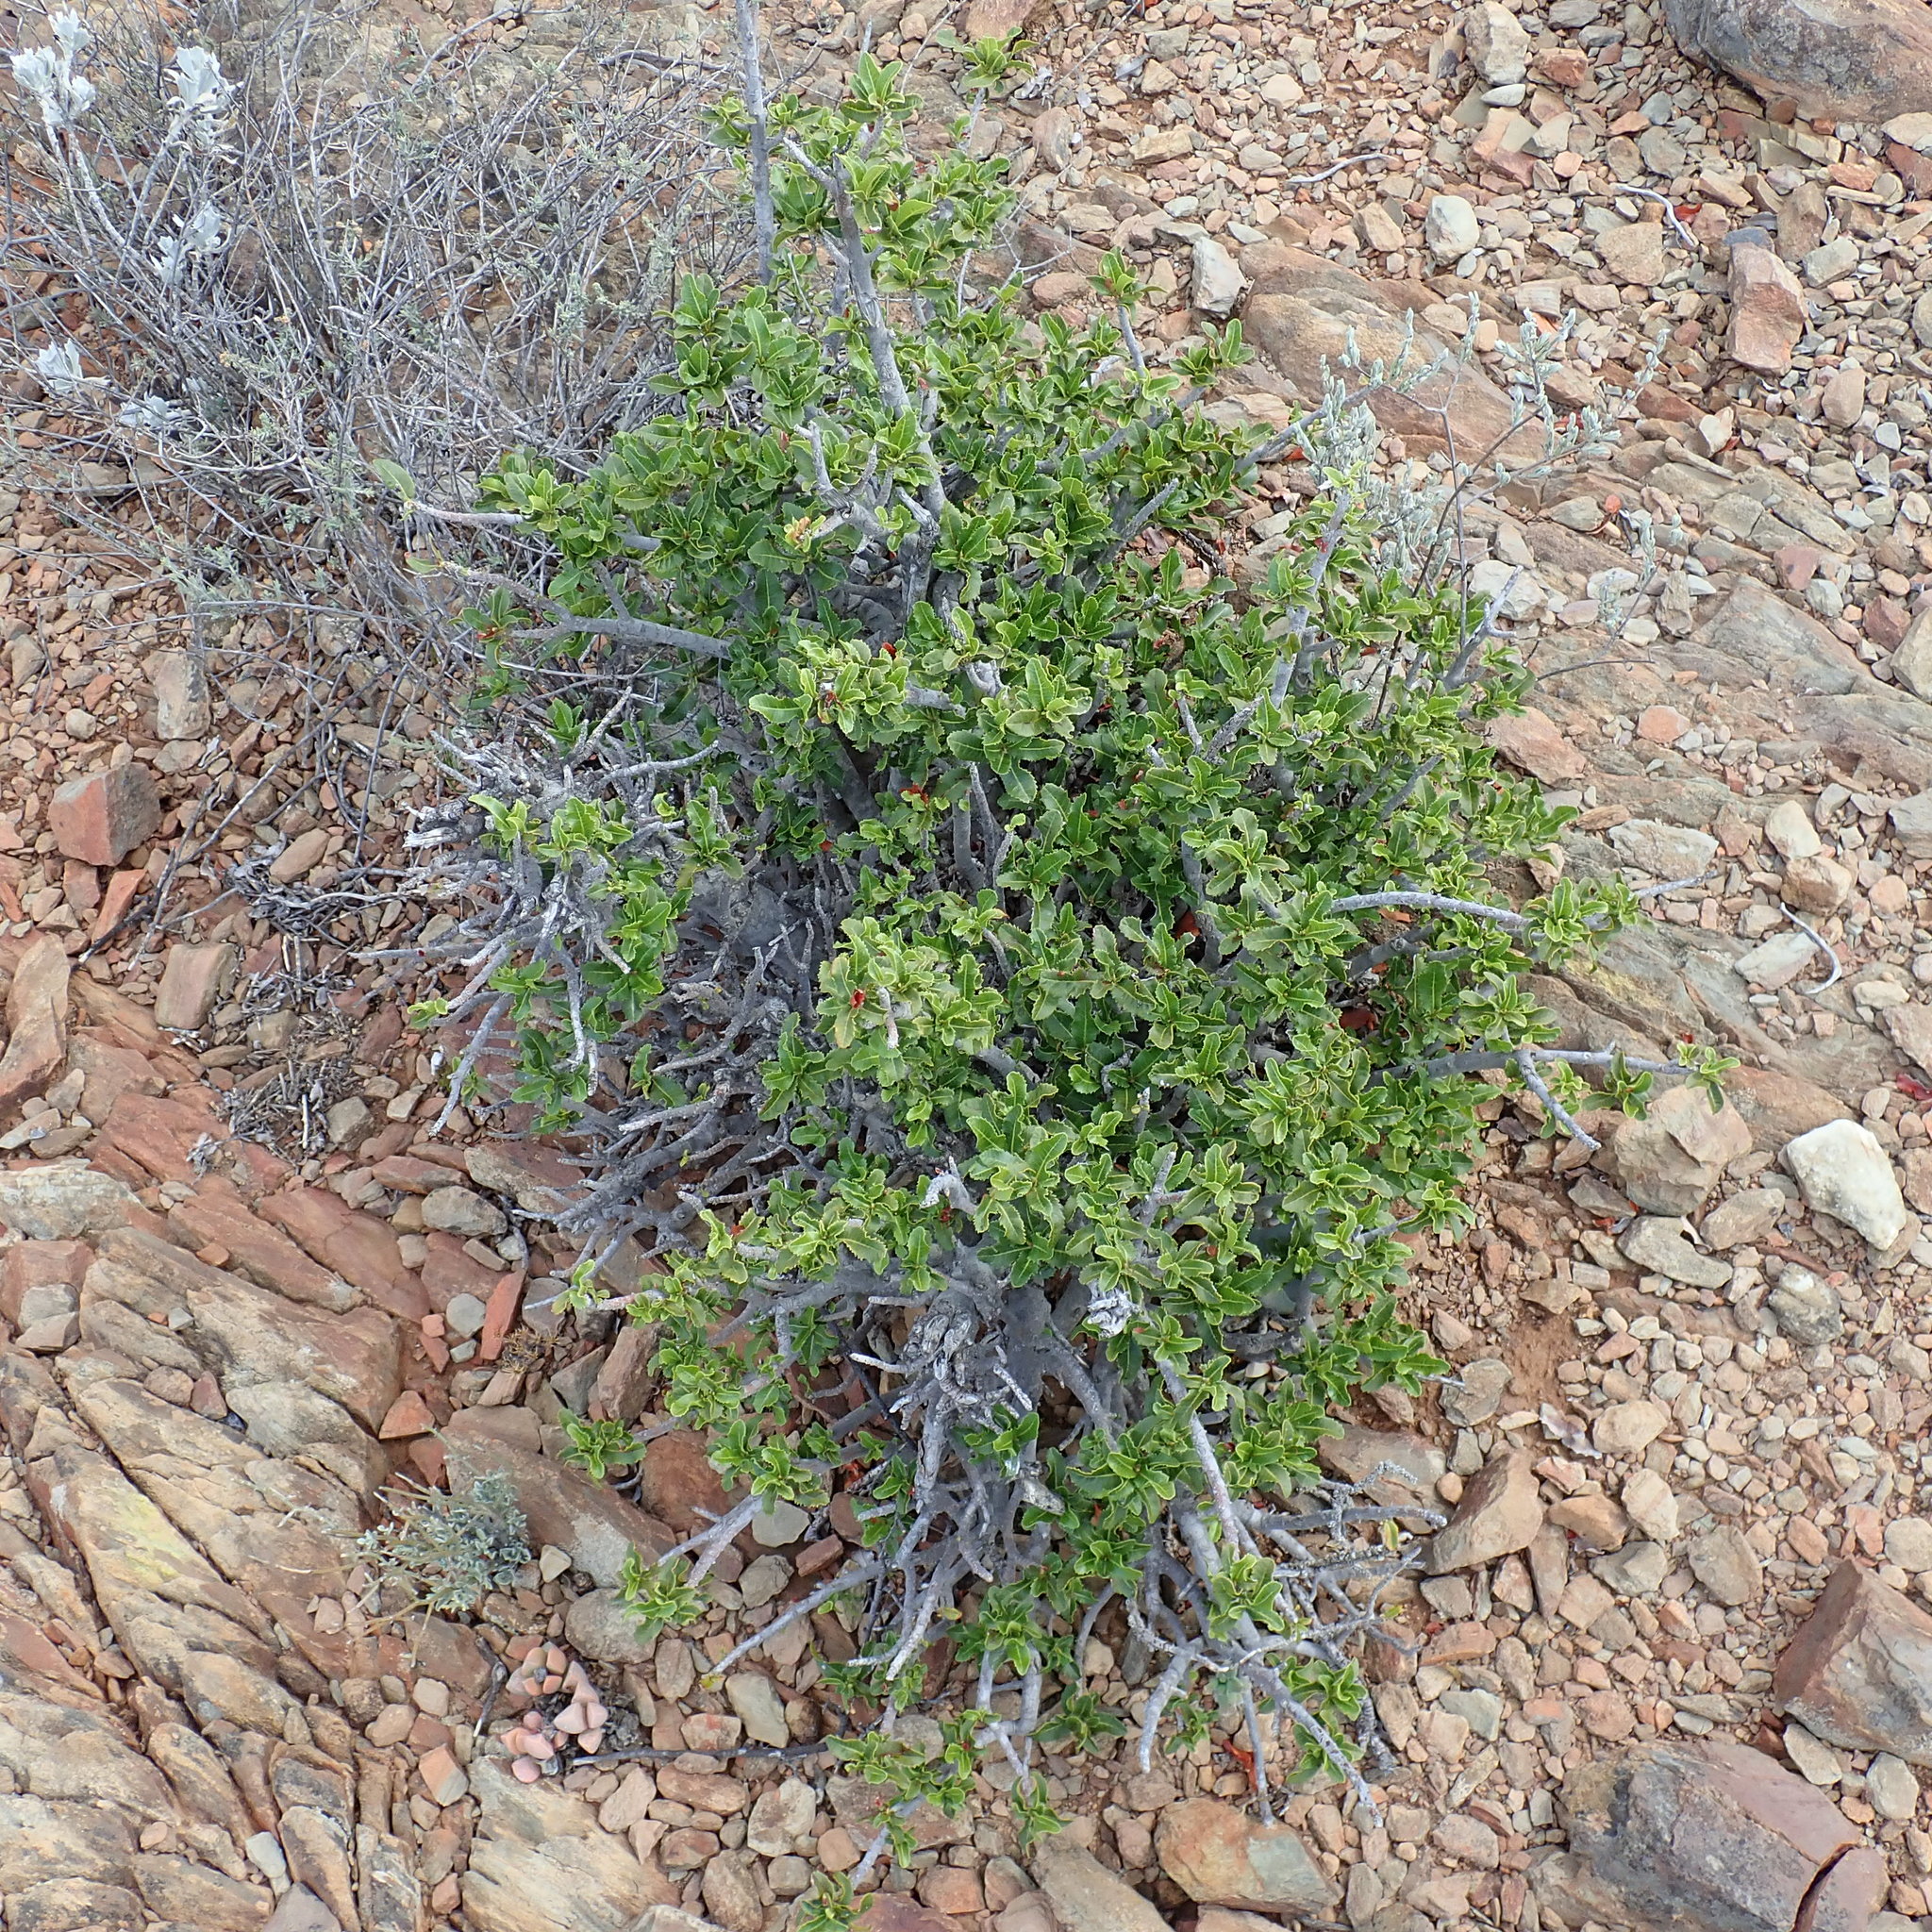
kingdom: Plantae
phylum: Tracheophyta
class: Magnoliopsida
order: Sapindales
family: Sapindaceae
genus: Pappea
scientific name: Pappea capensis
